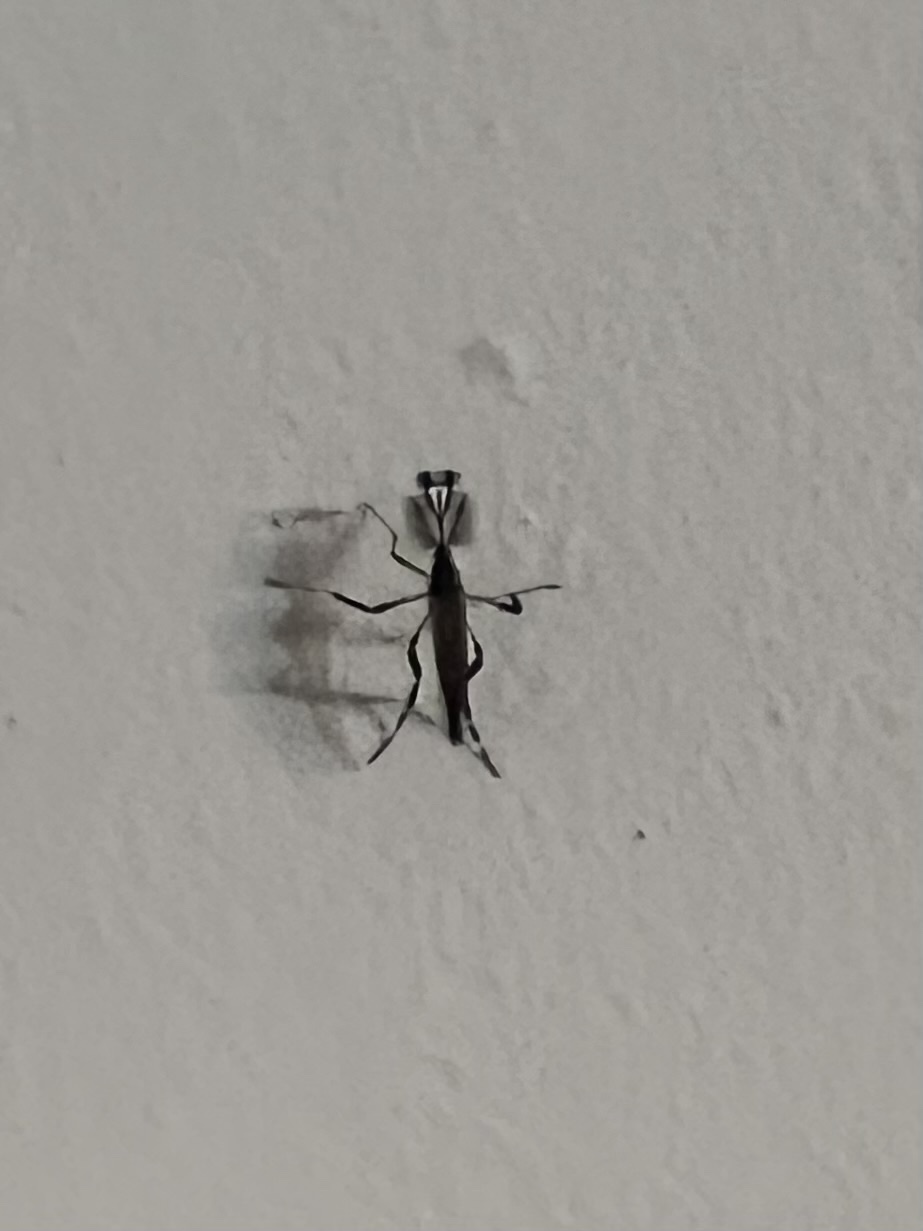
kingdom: Animalia
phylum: Arthropoda
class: Insecta
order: Diptera
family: Culicidae
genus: Psorophora
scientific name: Psorophora ciliata
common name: Gallinipper
